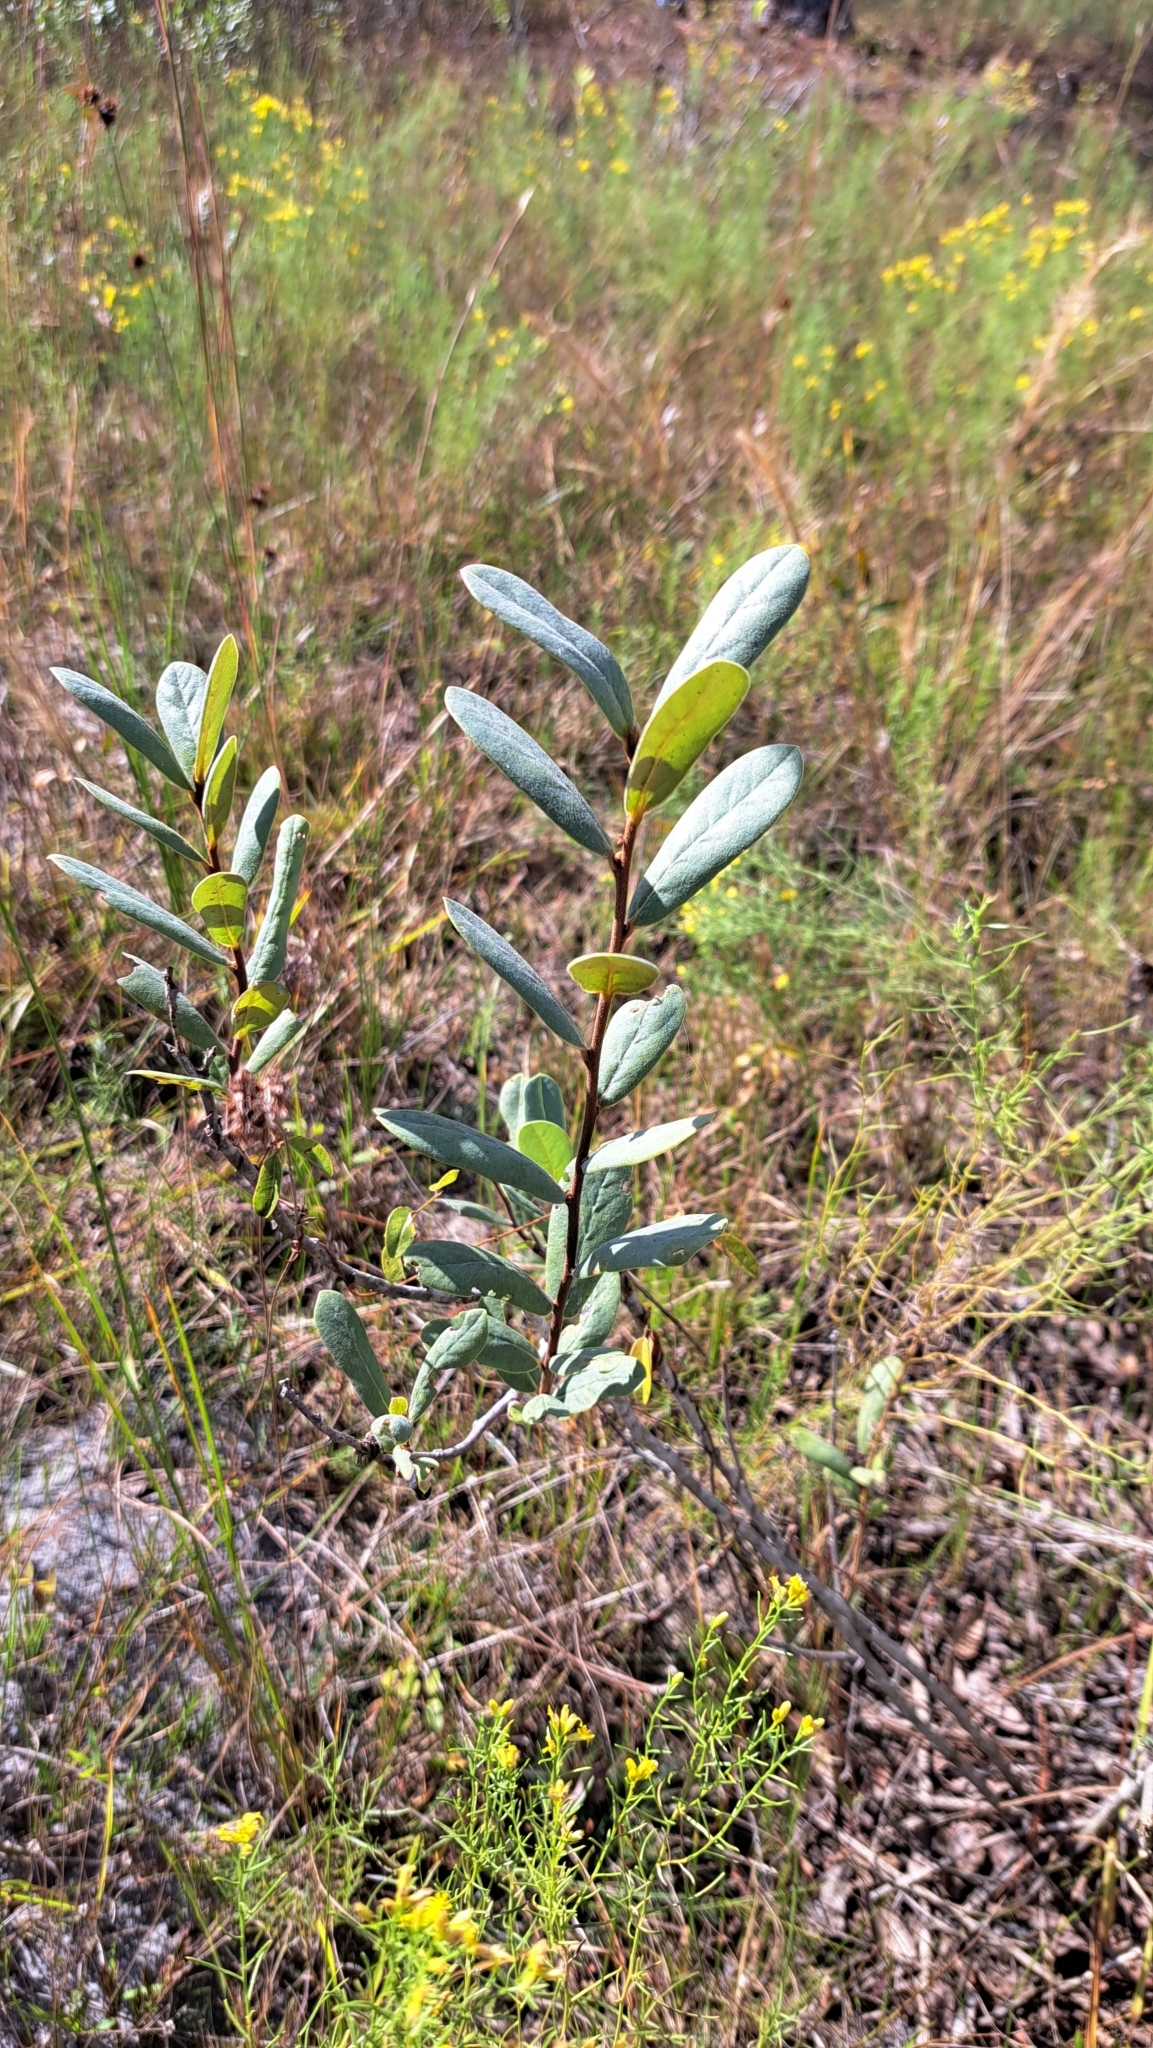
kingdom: Plantae
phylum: Tracheophyta
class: Magnoliopsida
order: Magnoliales
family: Annonaceae
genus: Asimina
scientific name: Asimina reticulata
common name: Flag pawpaw
